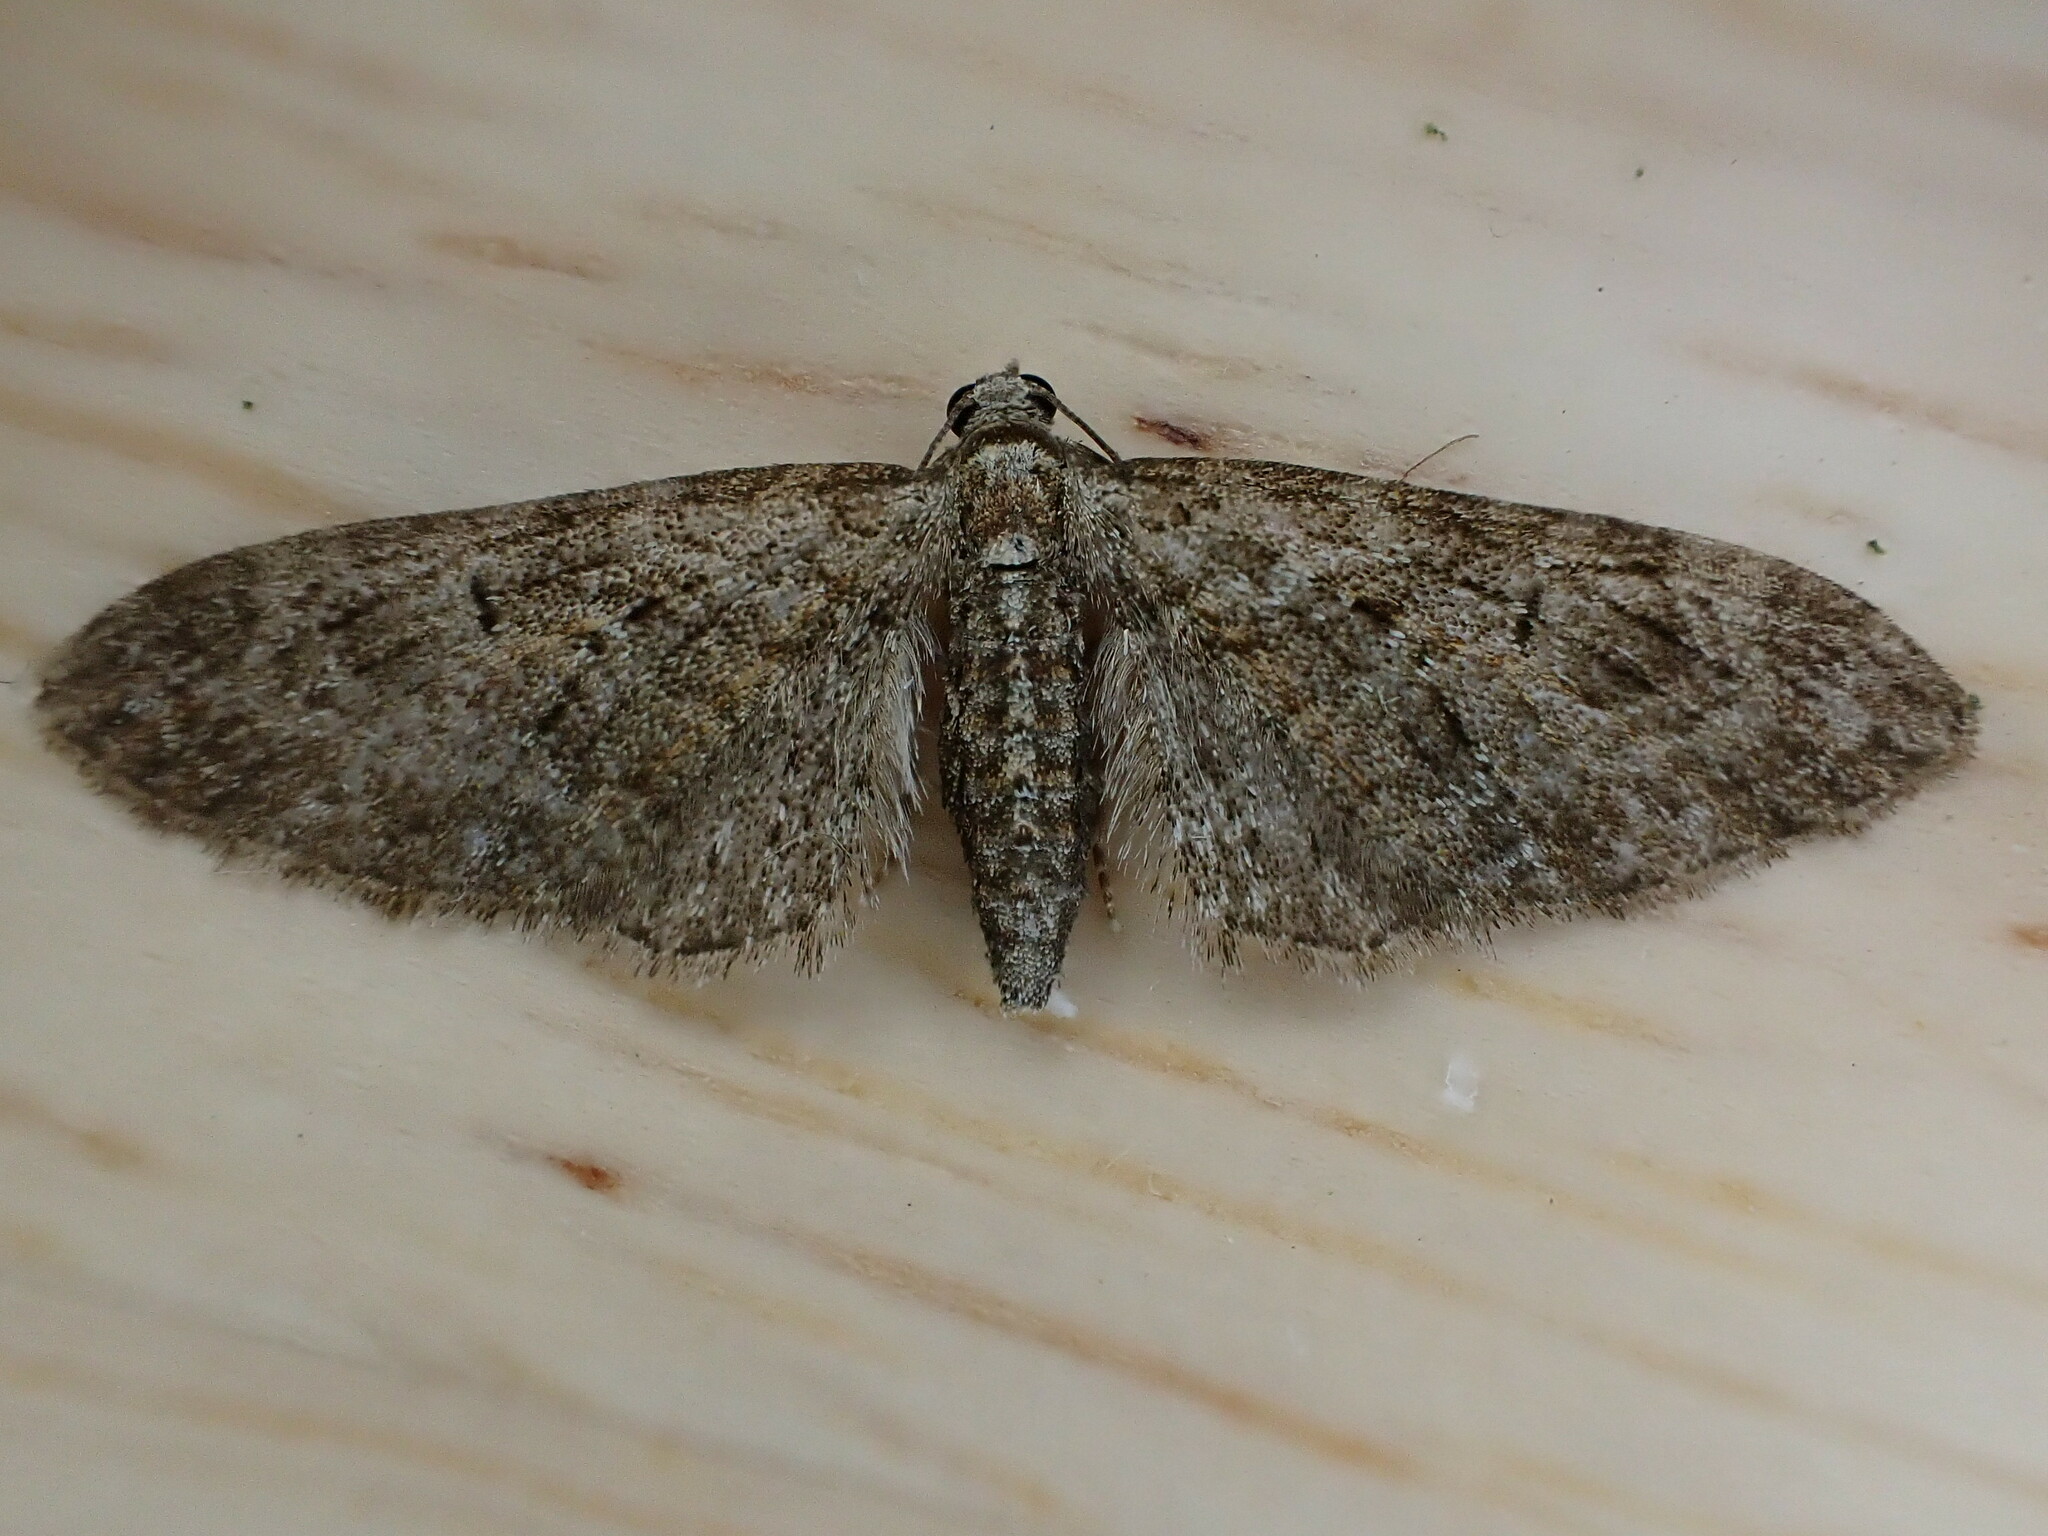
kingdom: Animalia
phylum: Arthropoda
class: Insecta
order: Lepidoptera
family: Geometridae
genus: Eupithecia
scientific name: Eupithecia abbreviata
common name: Brindled pug
